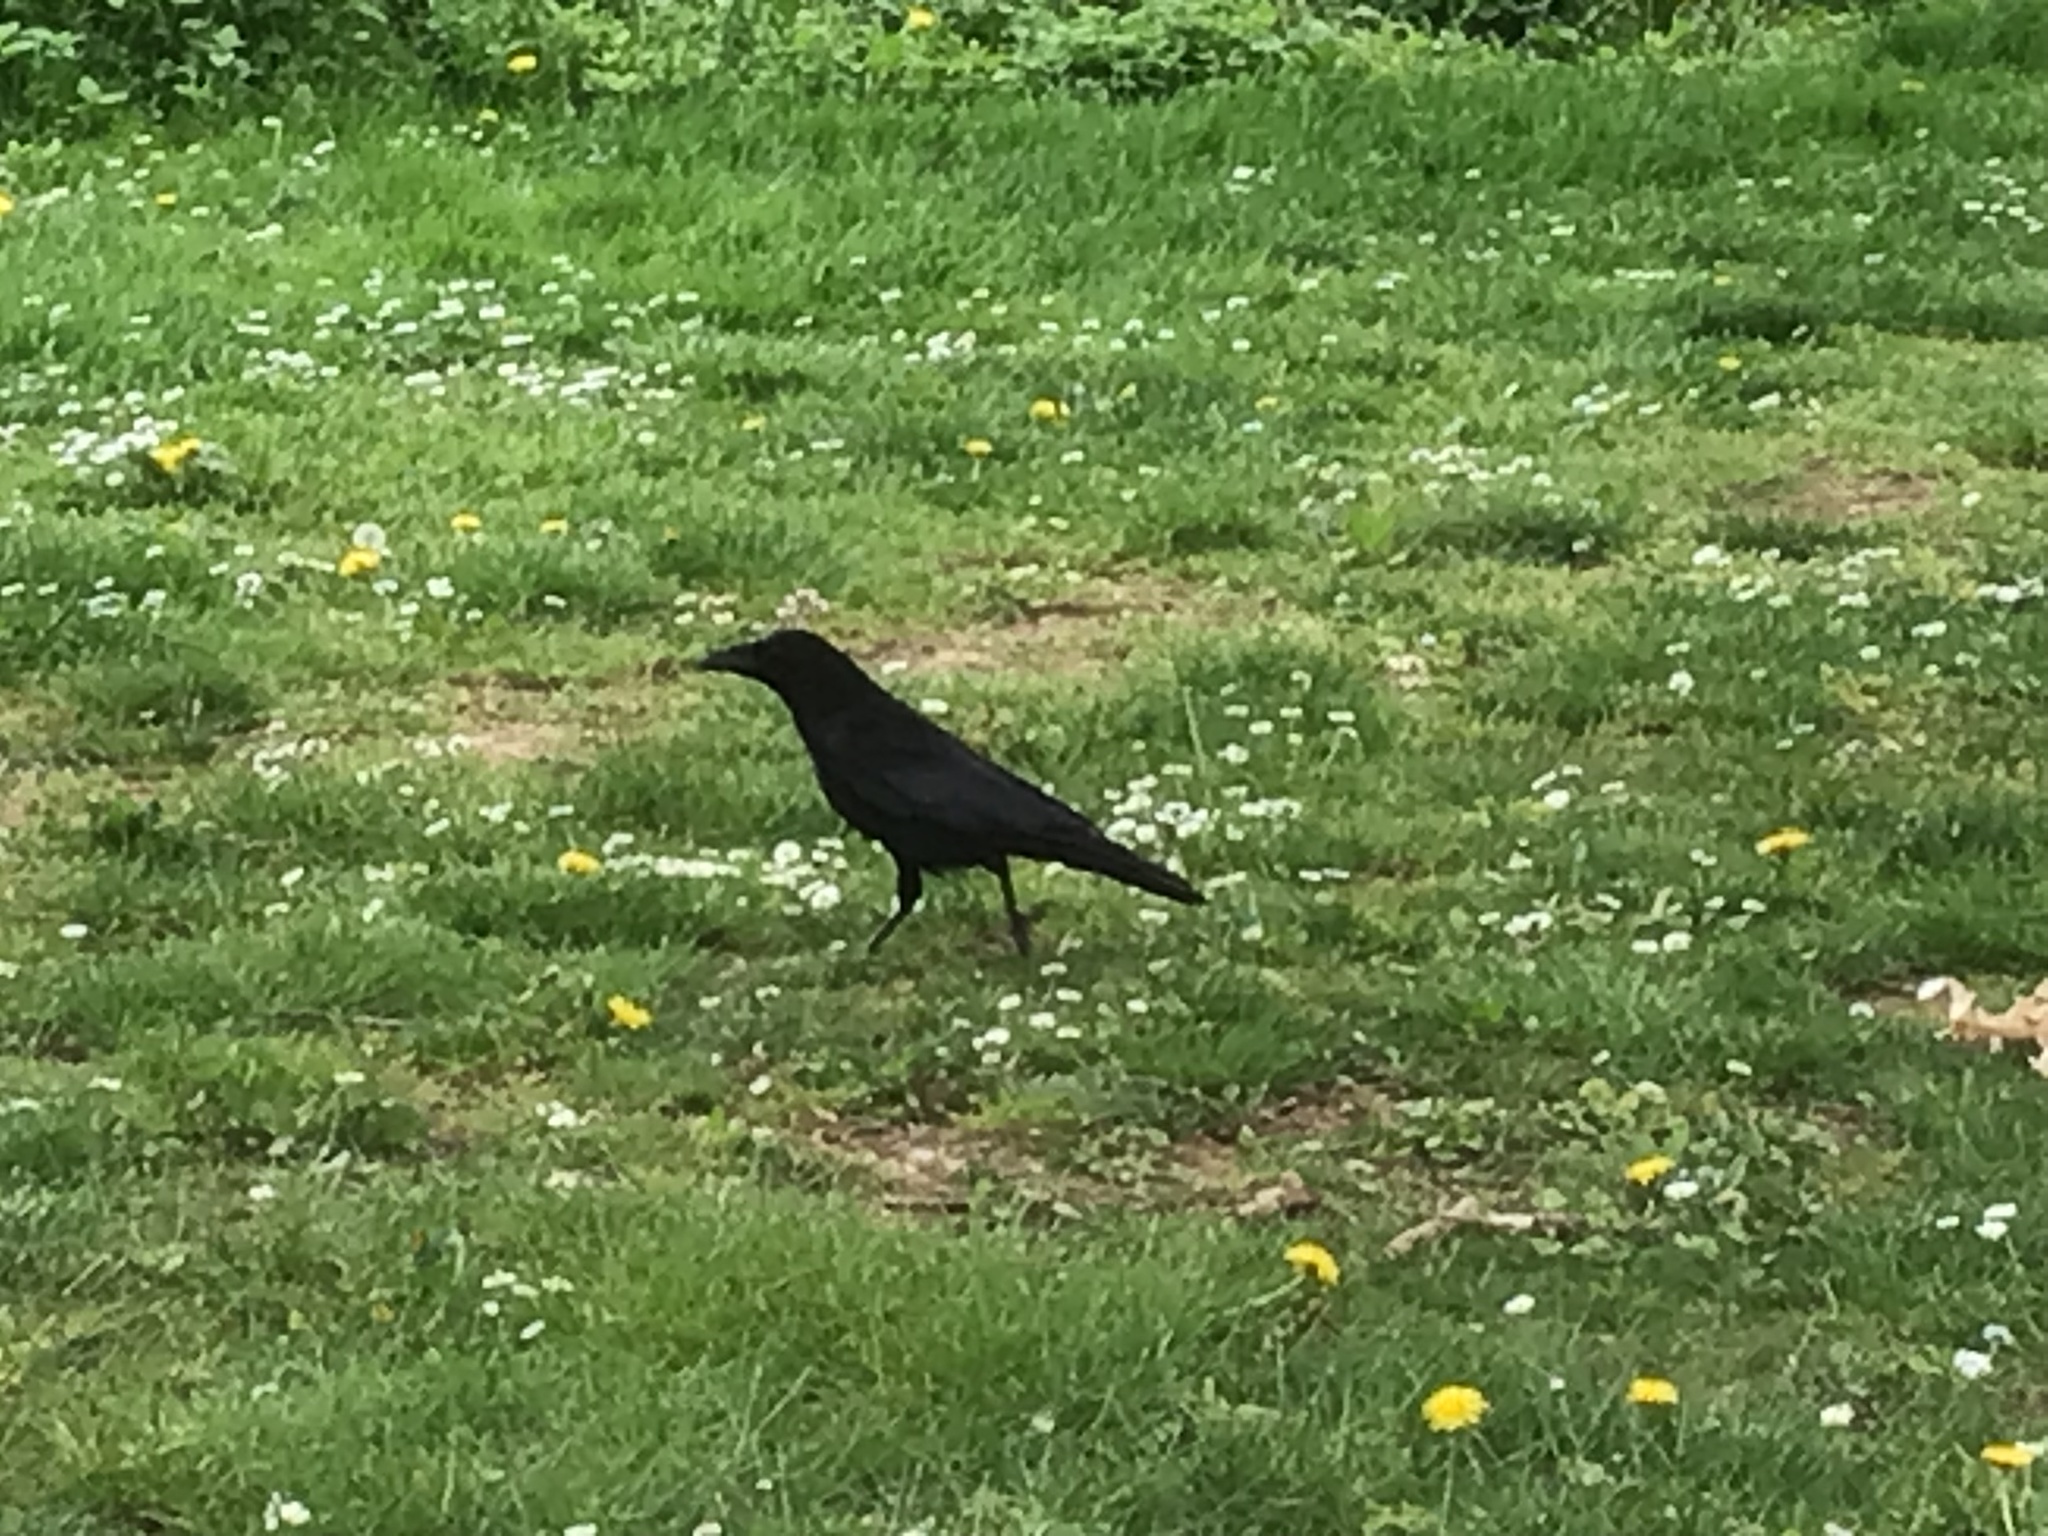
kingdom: Animalia
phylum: Chordata
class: Aves
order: Passeriformes
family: Corvidae
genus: Corvus
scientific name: Corvus corone
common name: Carrion crow
